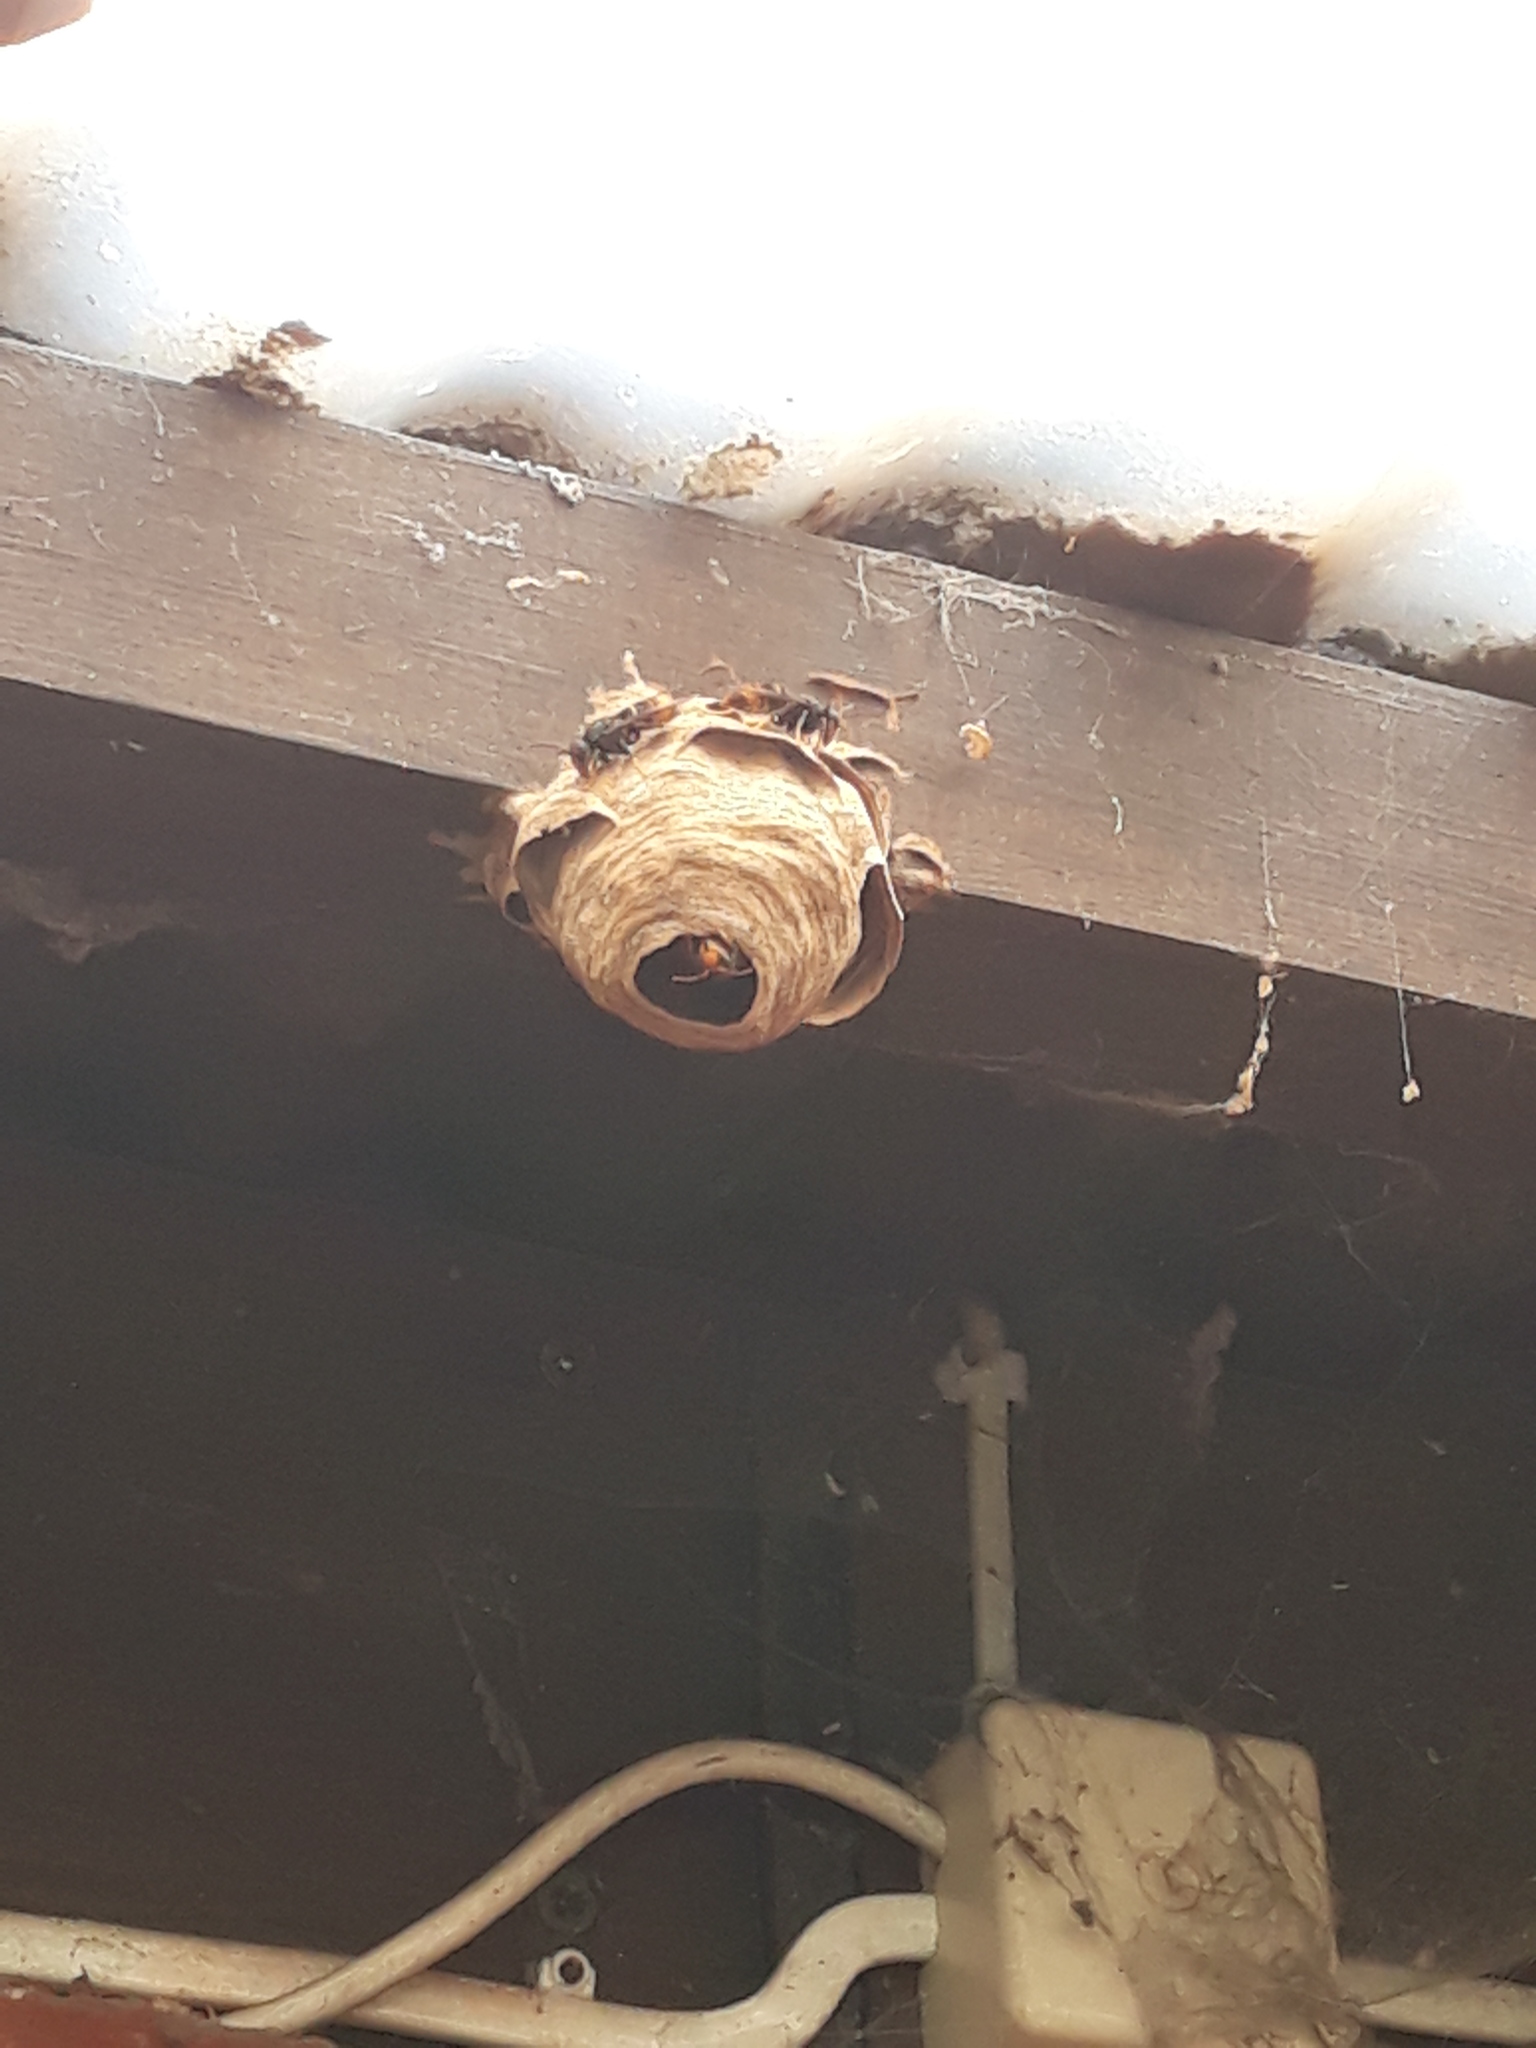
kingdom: Animalia
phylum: Arthropoda
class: Insecta
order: Hymenoptera
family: Vespidae
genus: Vespa
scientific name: Vespa velutina
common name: Asian hornet
